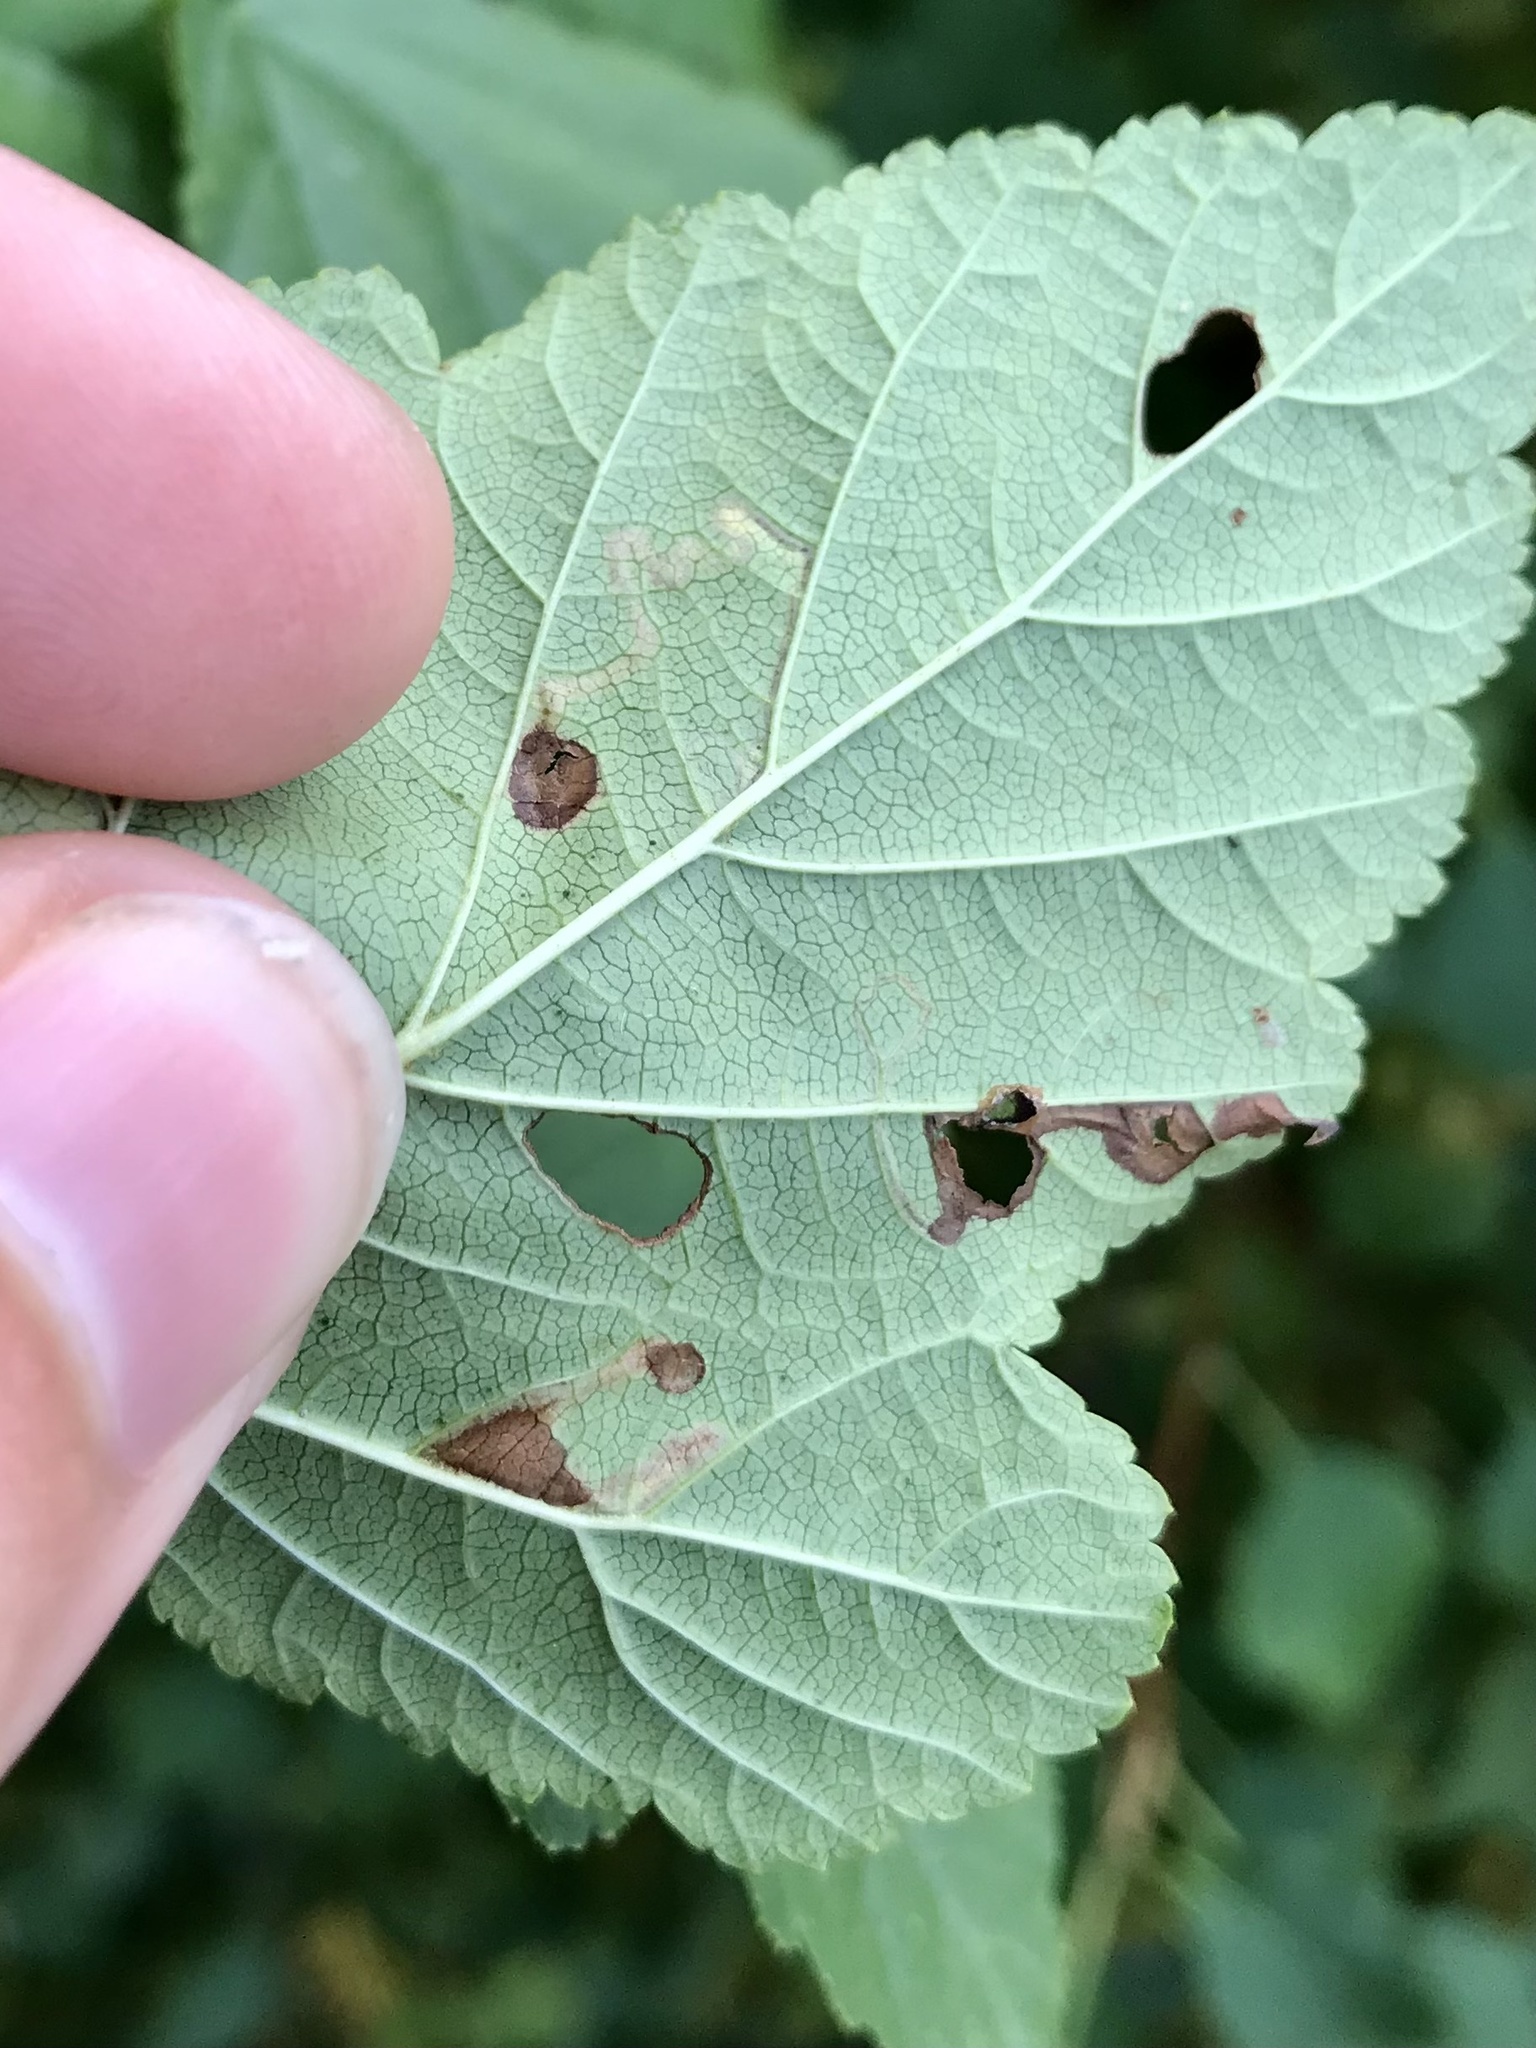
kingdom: Animalia
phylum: Arthropoda
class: Insecta
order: Lepidoptera
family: Nepticulidae
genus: Stigmella
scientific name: Stigmella corylifoliella
